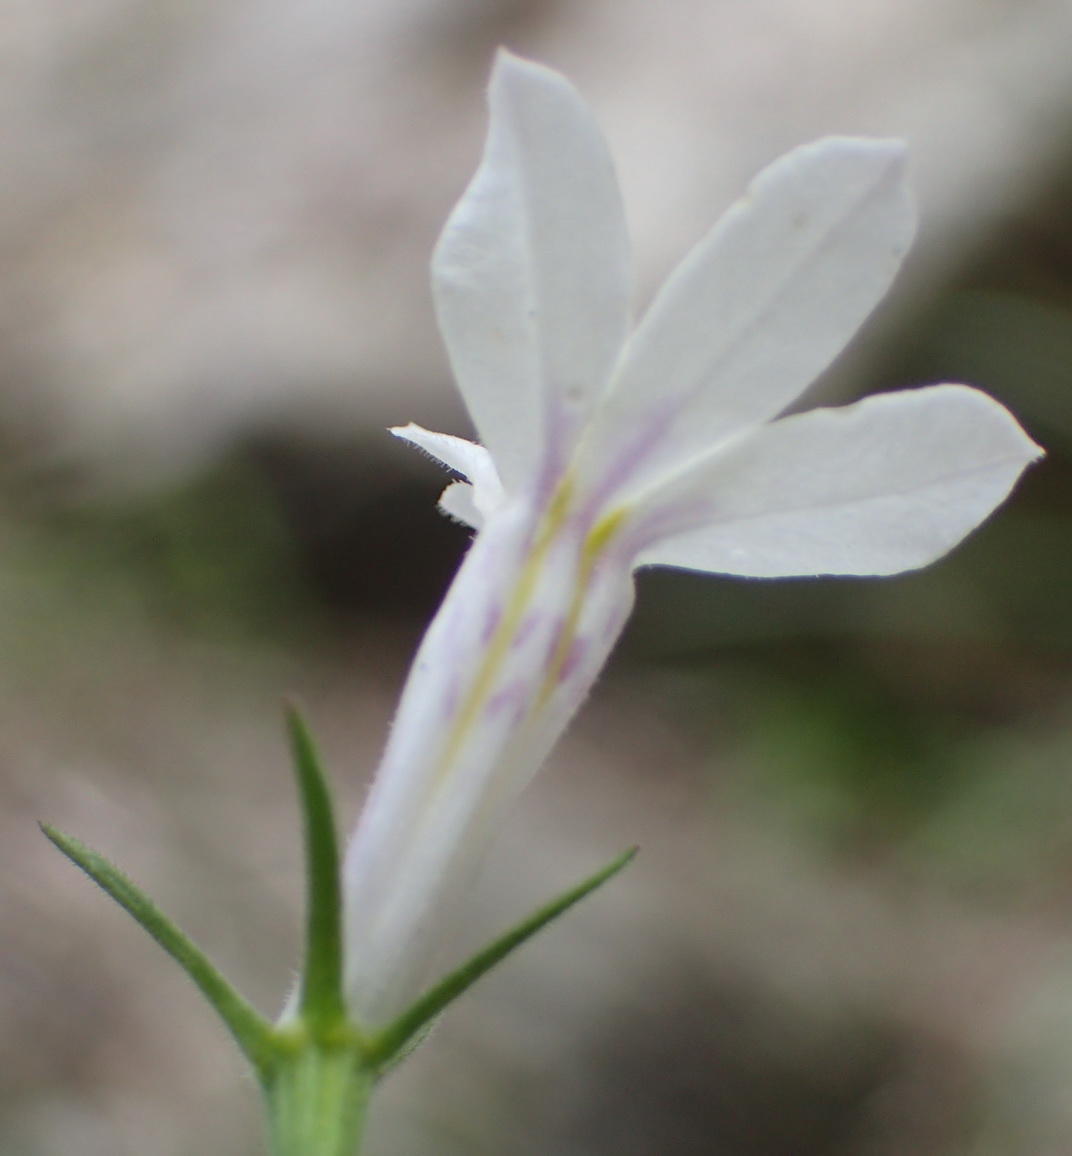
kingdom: Plantae
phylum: Tracheophyta
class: Magnoliopsida
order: Asterales
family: Campanulaceae
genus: Lobelia
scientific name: Lobelia pubescens
